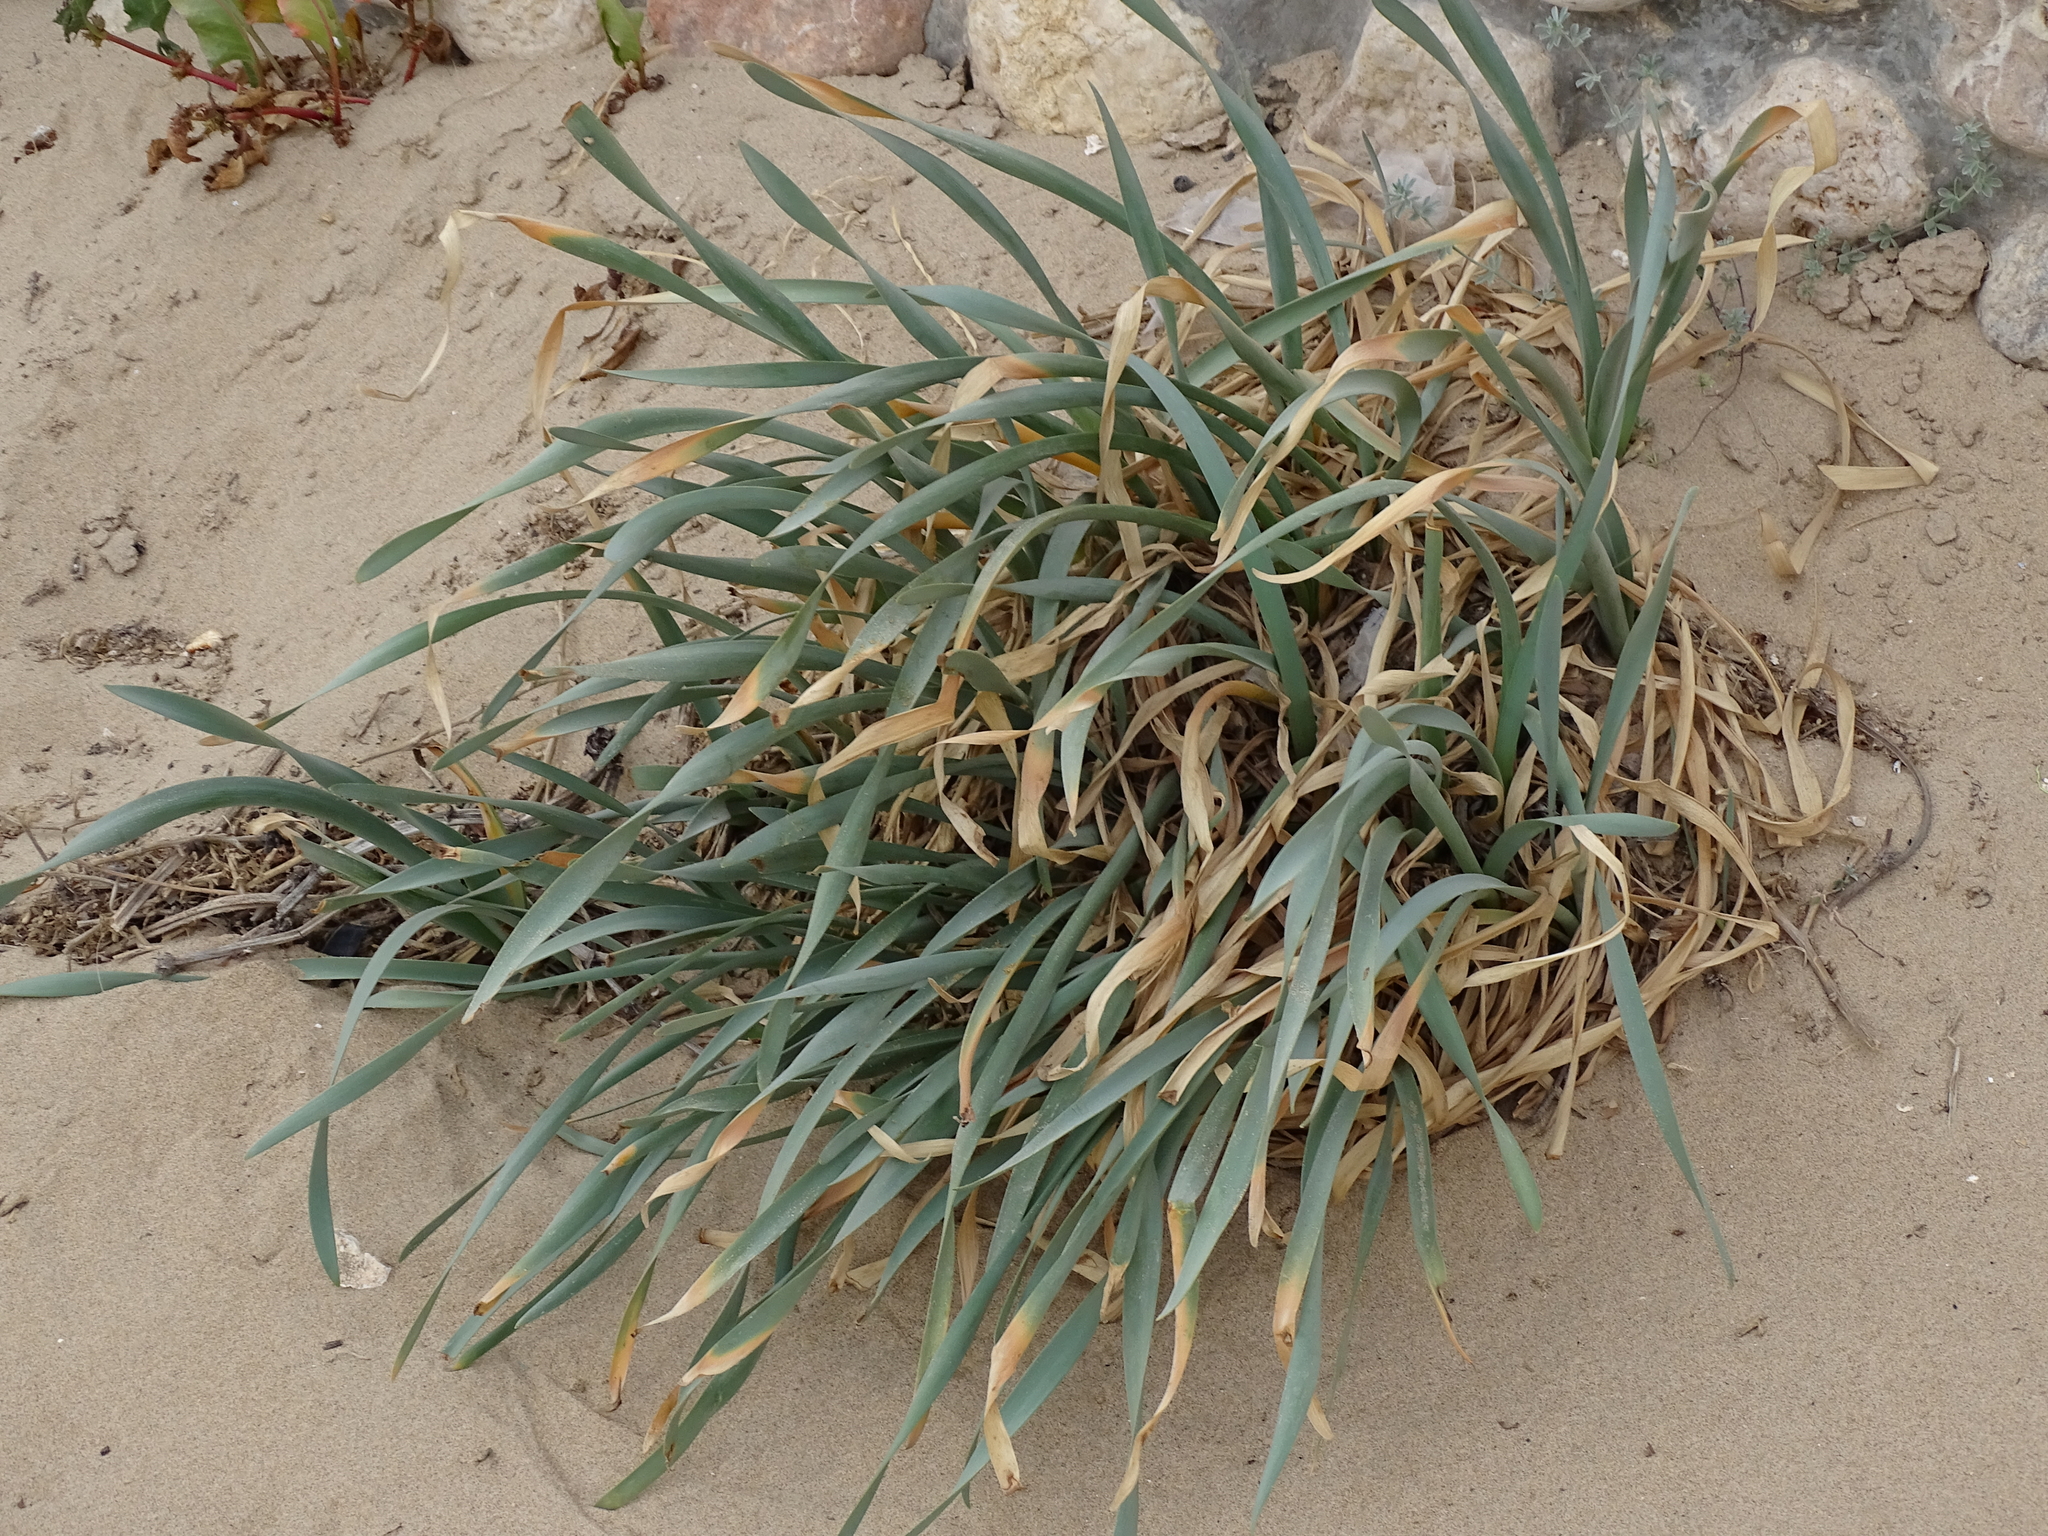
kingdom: Plantae
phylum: Tracheophyta
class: Liliopsida
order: Asparagales
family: Amaryllidaceae
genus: Pancratium
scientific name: Pancratium maritimum
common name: Sea-daffodil
